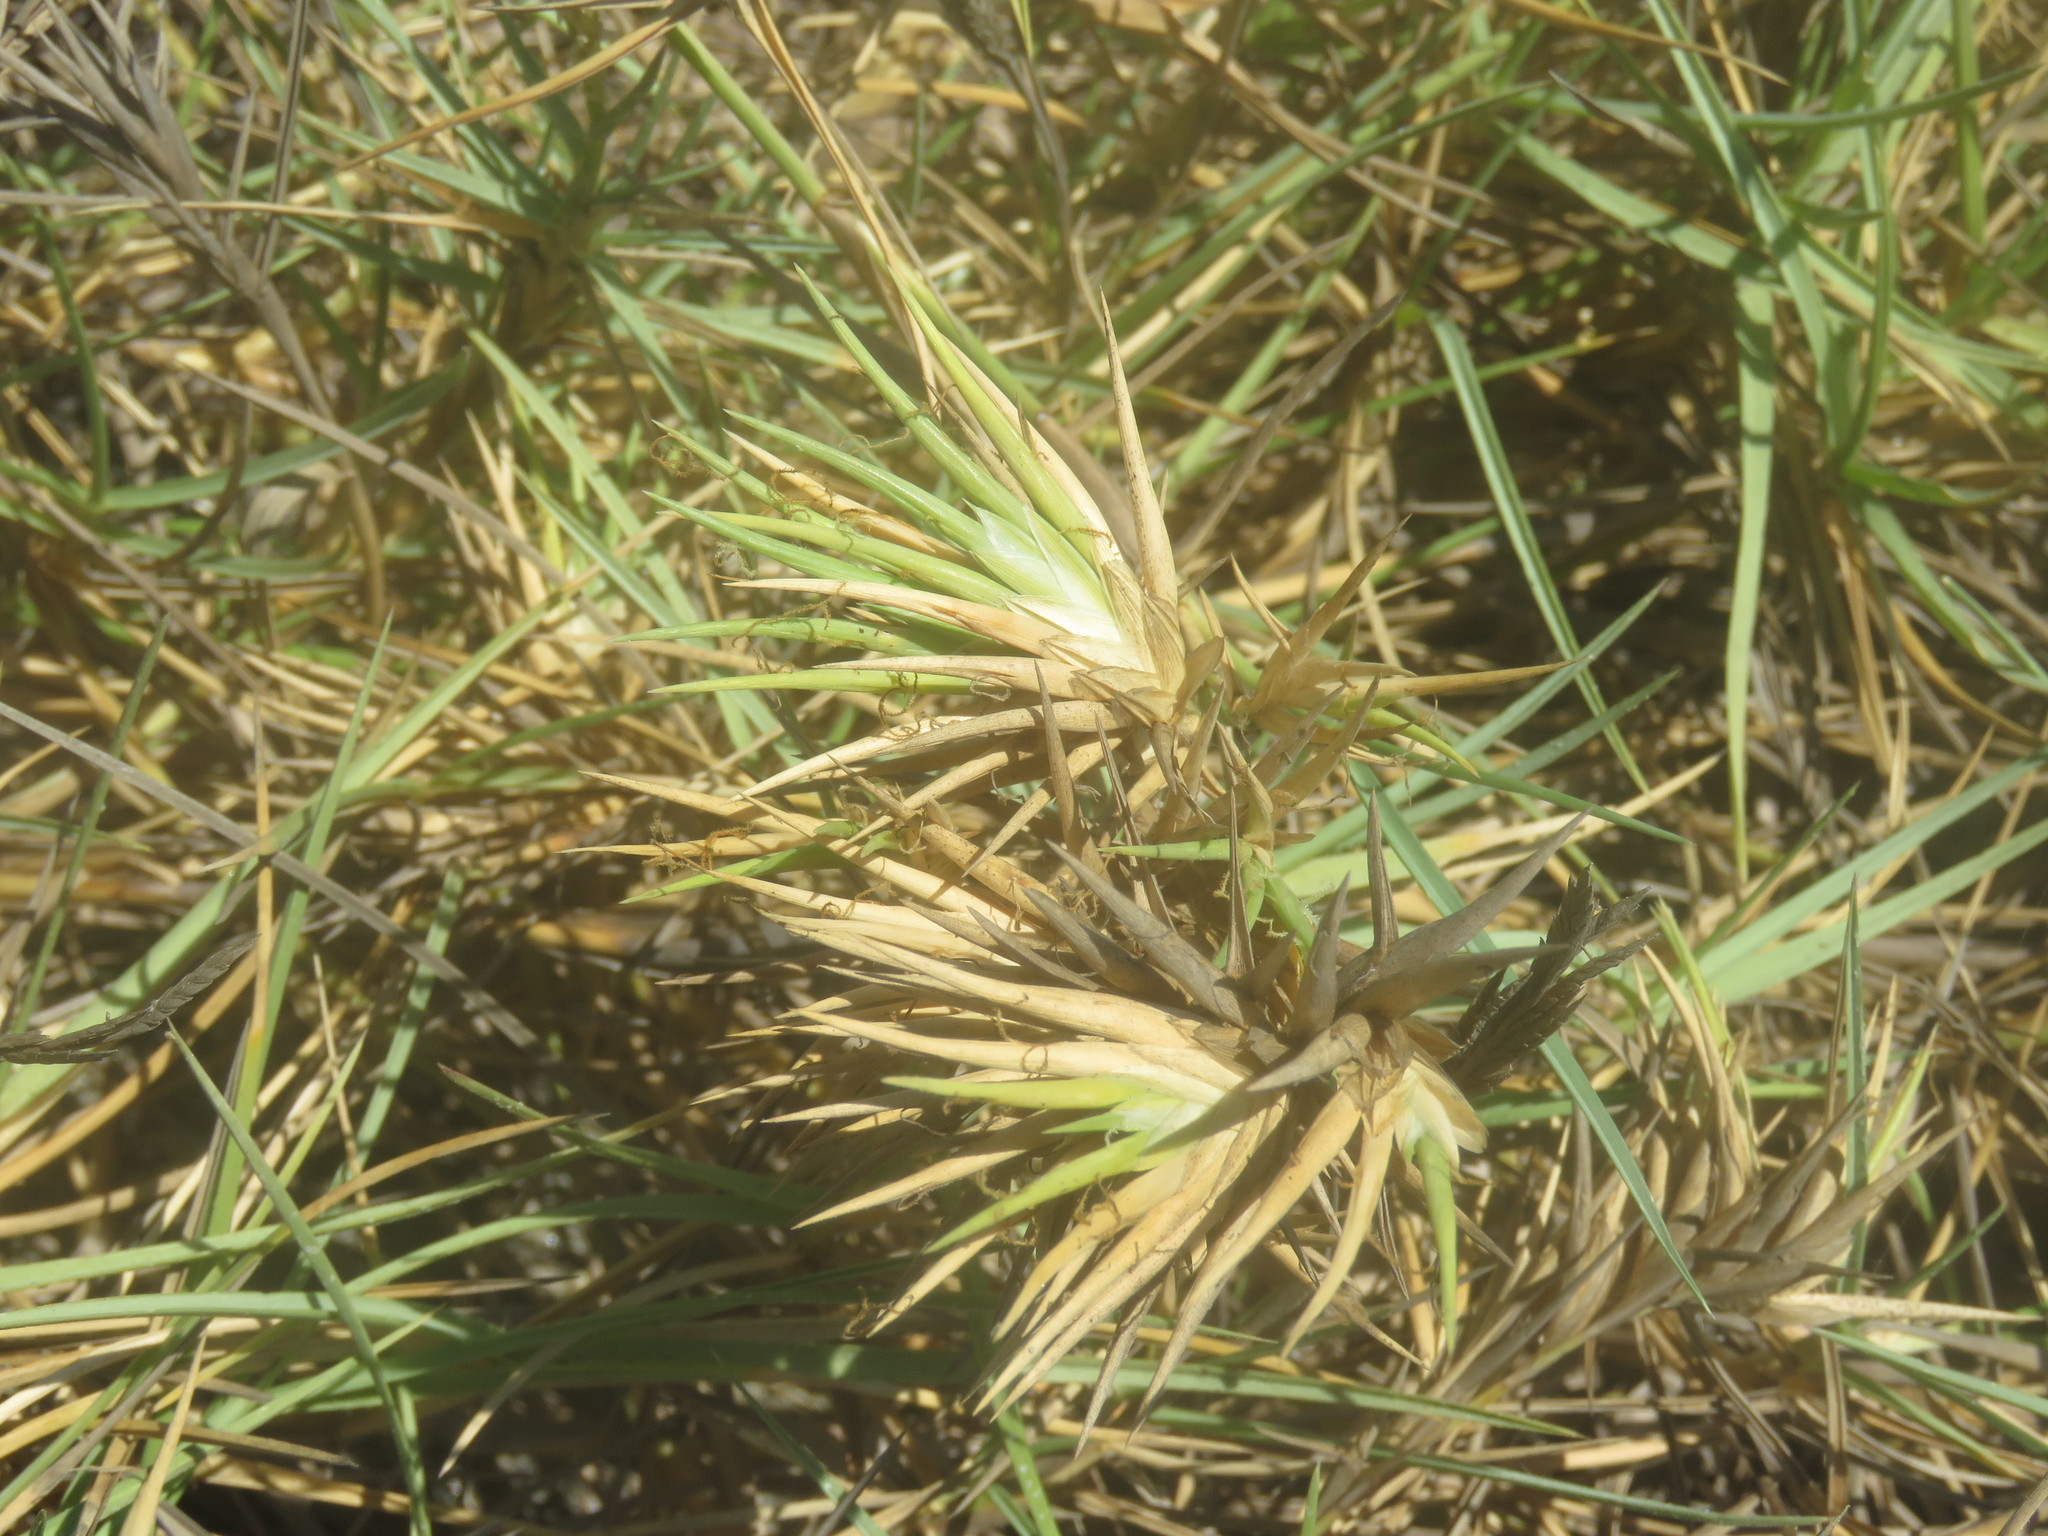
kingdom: Plantae
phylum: Tracheophyta
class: Liliopsida
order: Poales
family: Poaceae
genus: Jouvea
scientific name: Jouvea pilosa
